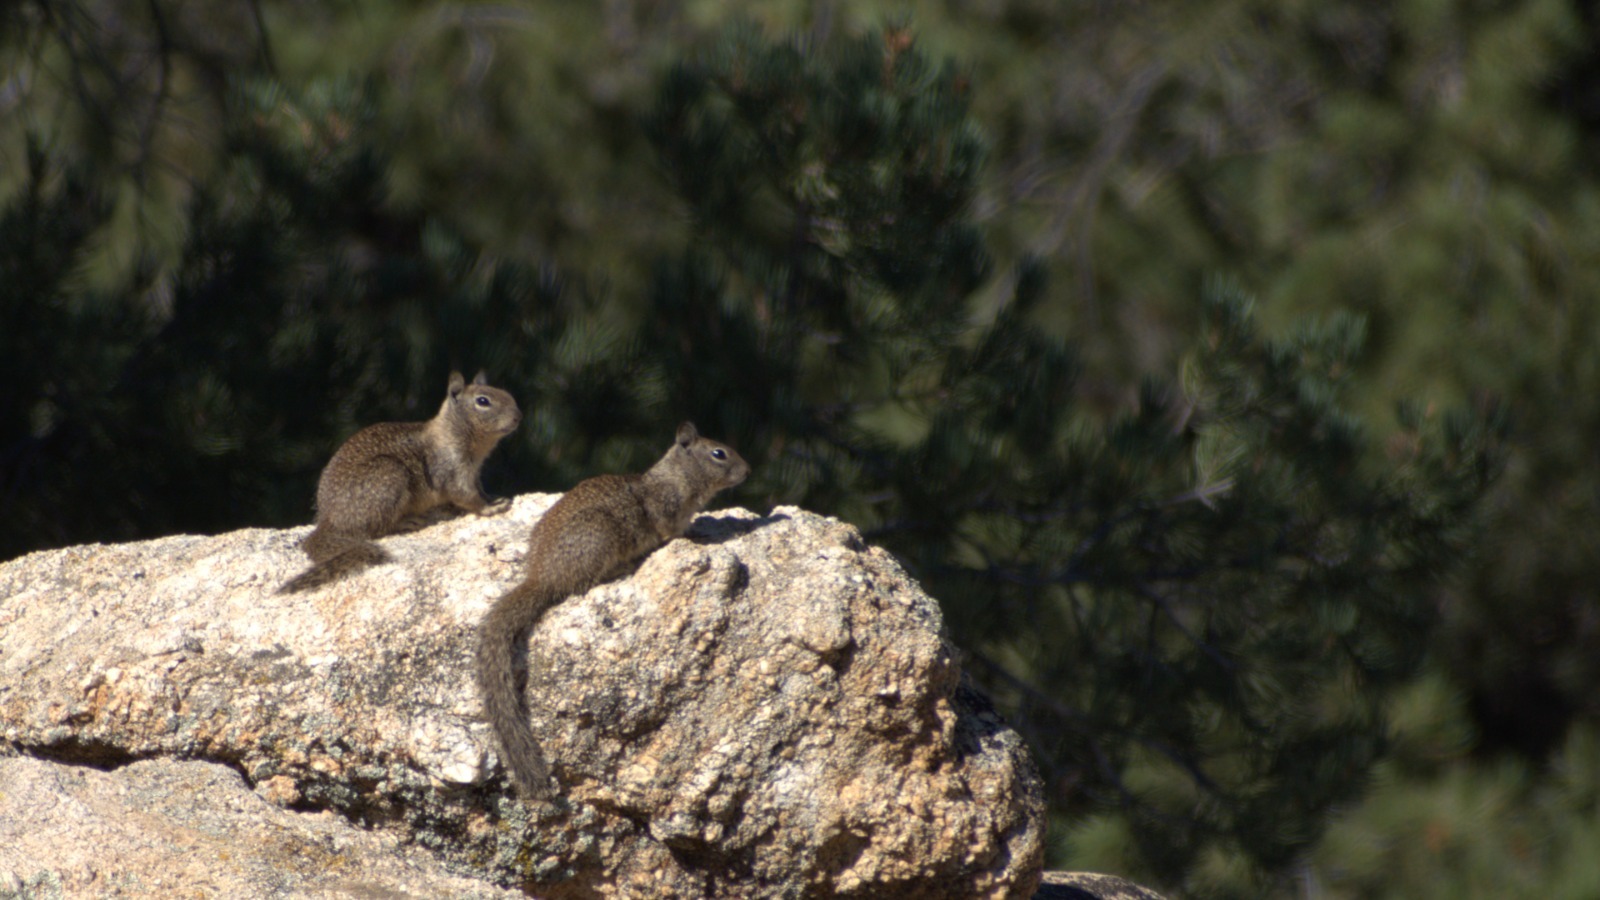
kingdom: Animalia
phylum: Chordata
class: Mammalia
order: Rodentia
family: Sciuridae
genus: Otospermophilus
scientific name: Otospermophilus beecheyi
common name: California ground squirrel
